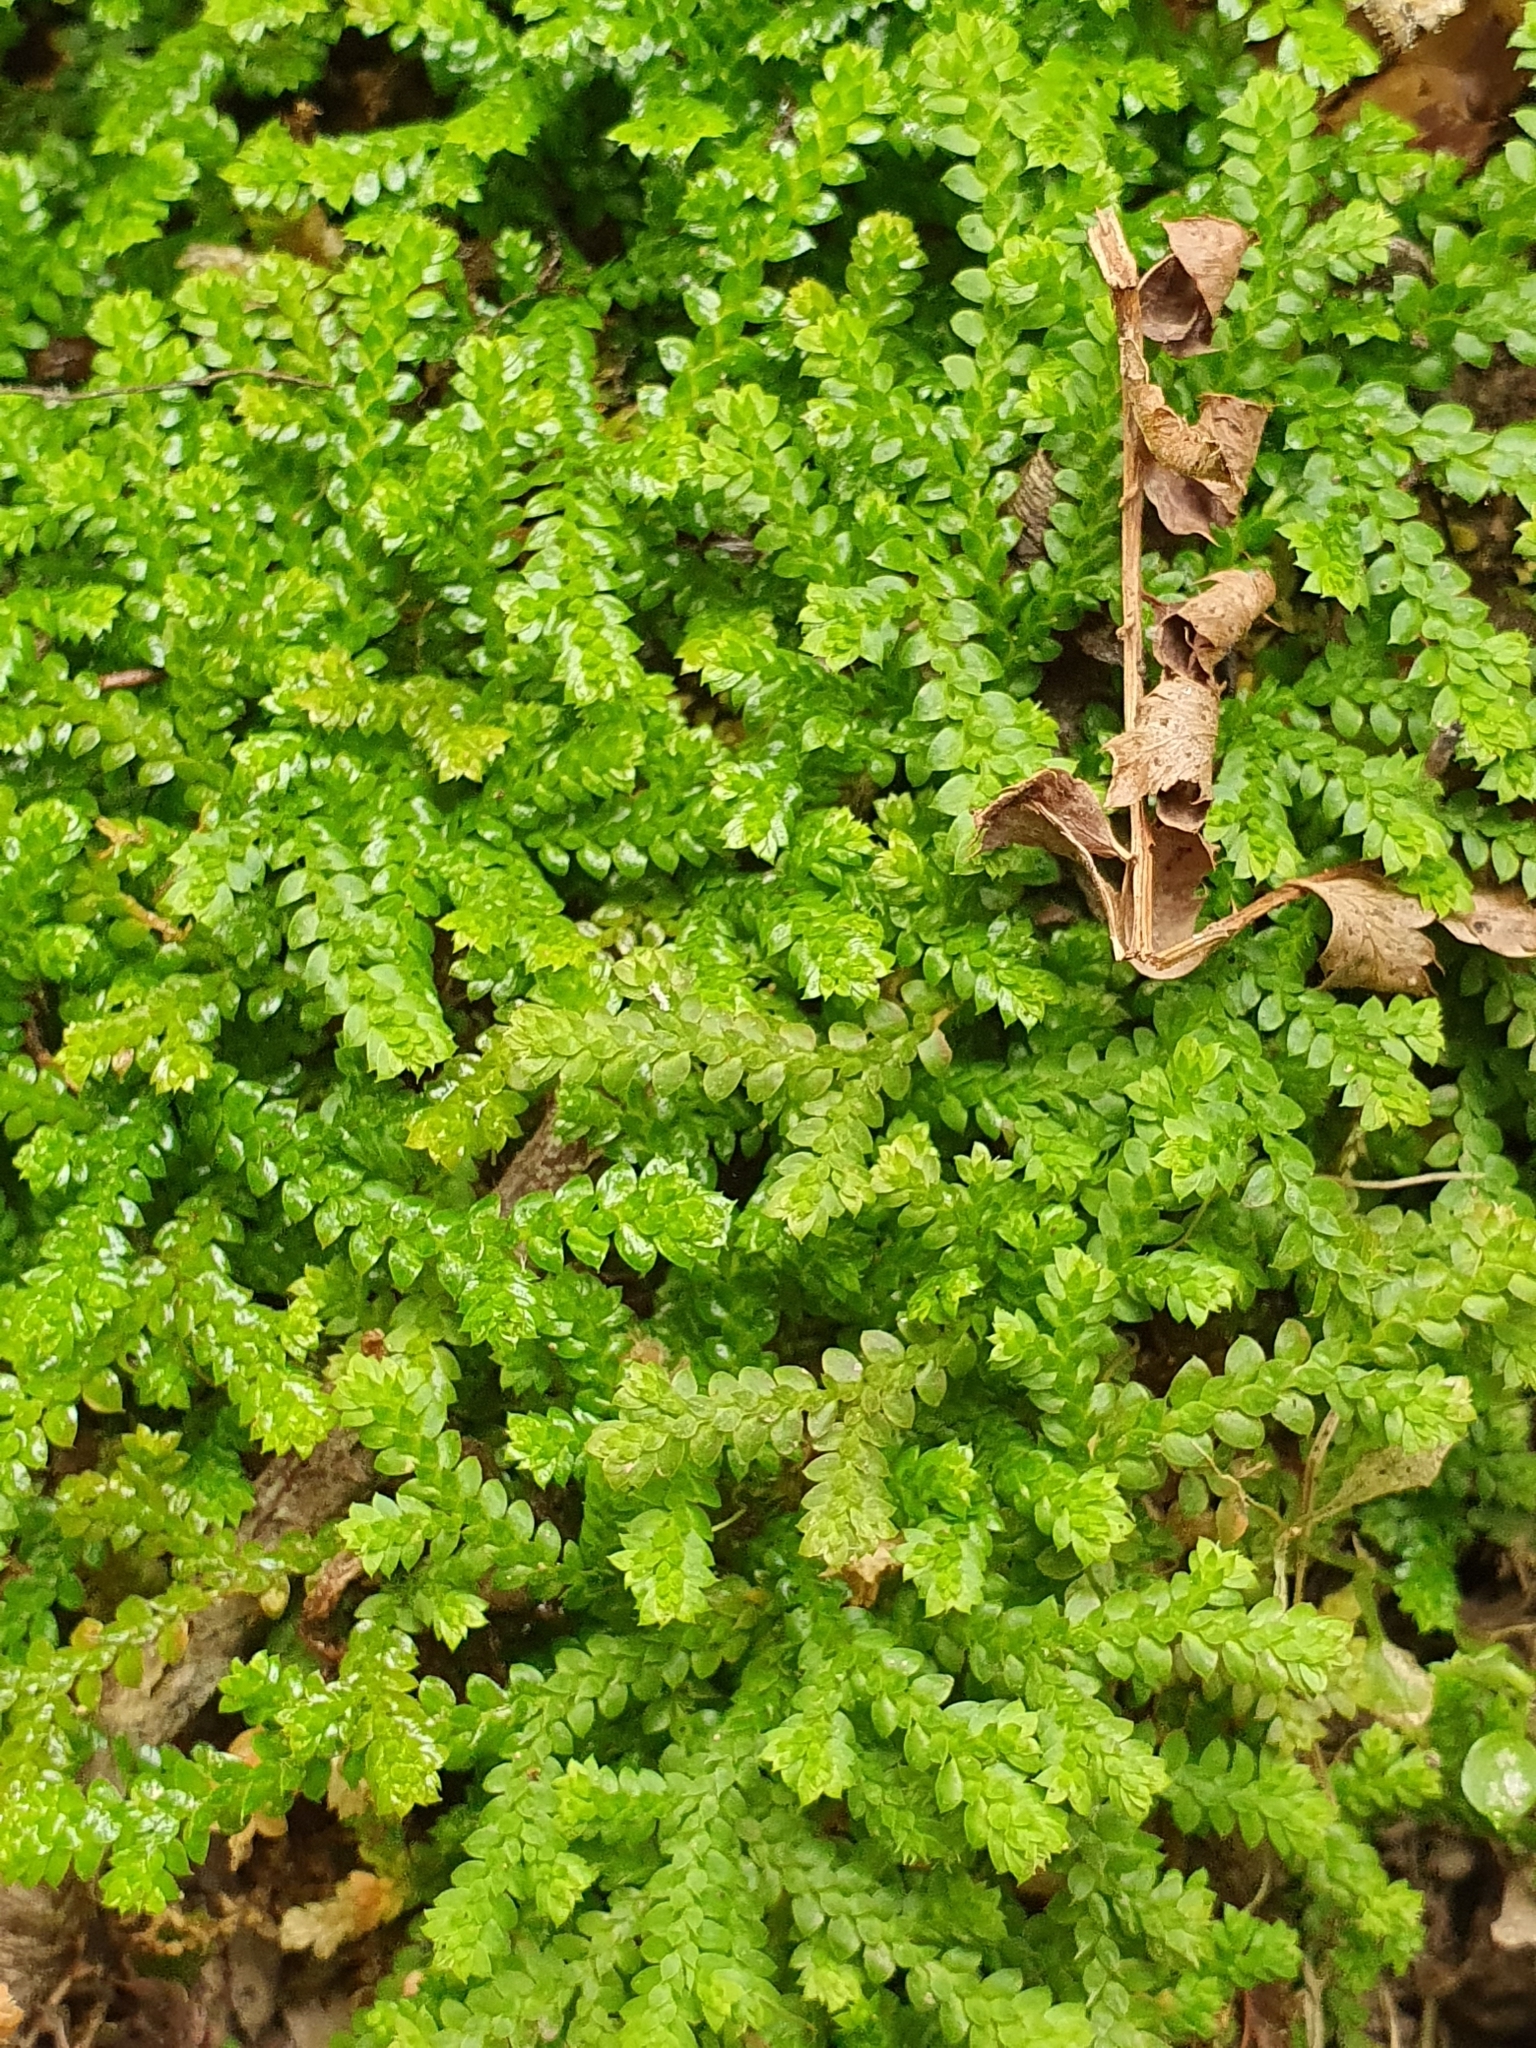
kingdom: Plantae
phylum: Tracheophyta
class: Lycopodiopsida
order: Selaginellales
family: Selaginellaceae
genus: Selaginella
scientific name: Selaginella denticulata
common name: Toothed-leaved clubmoss
